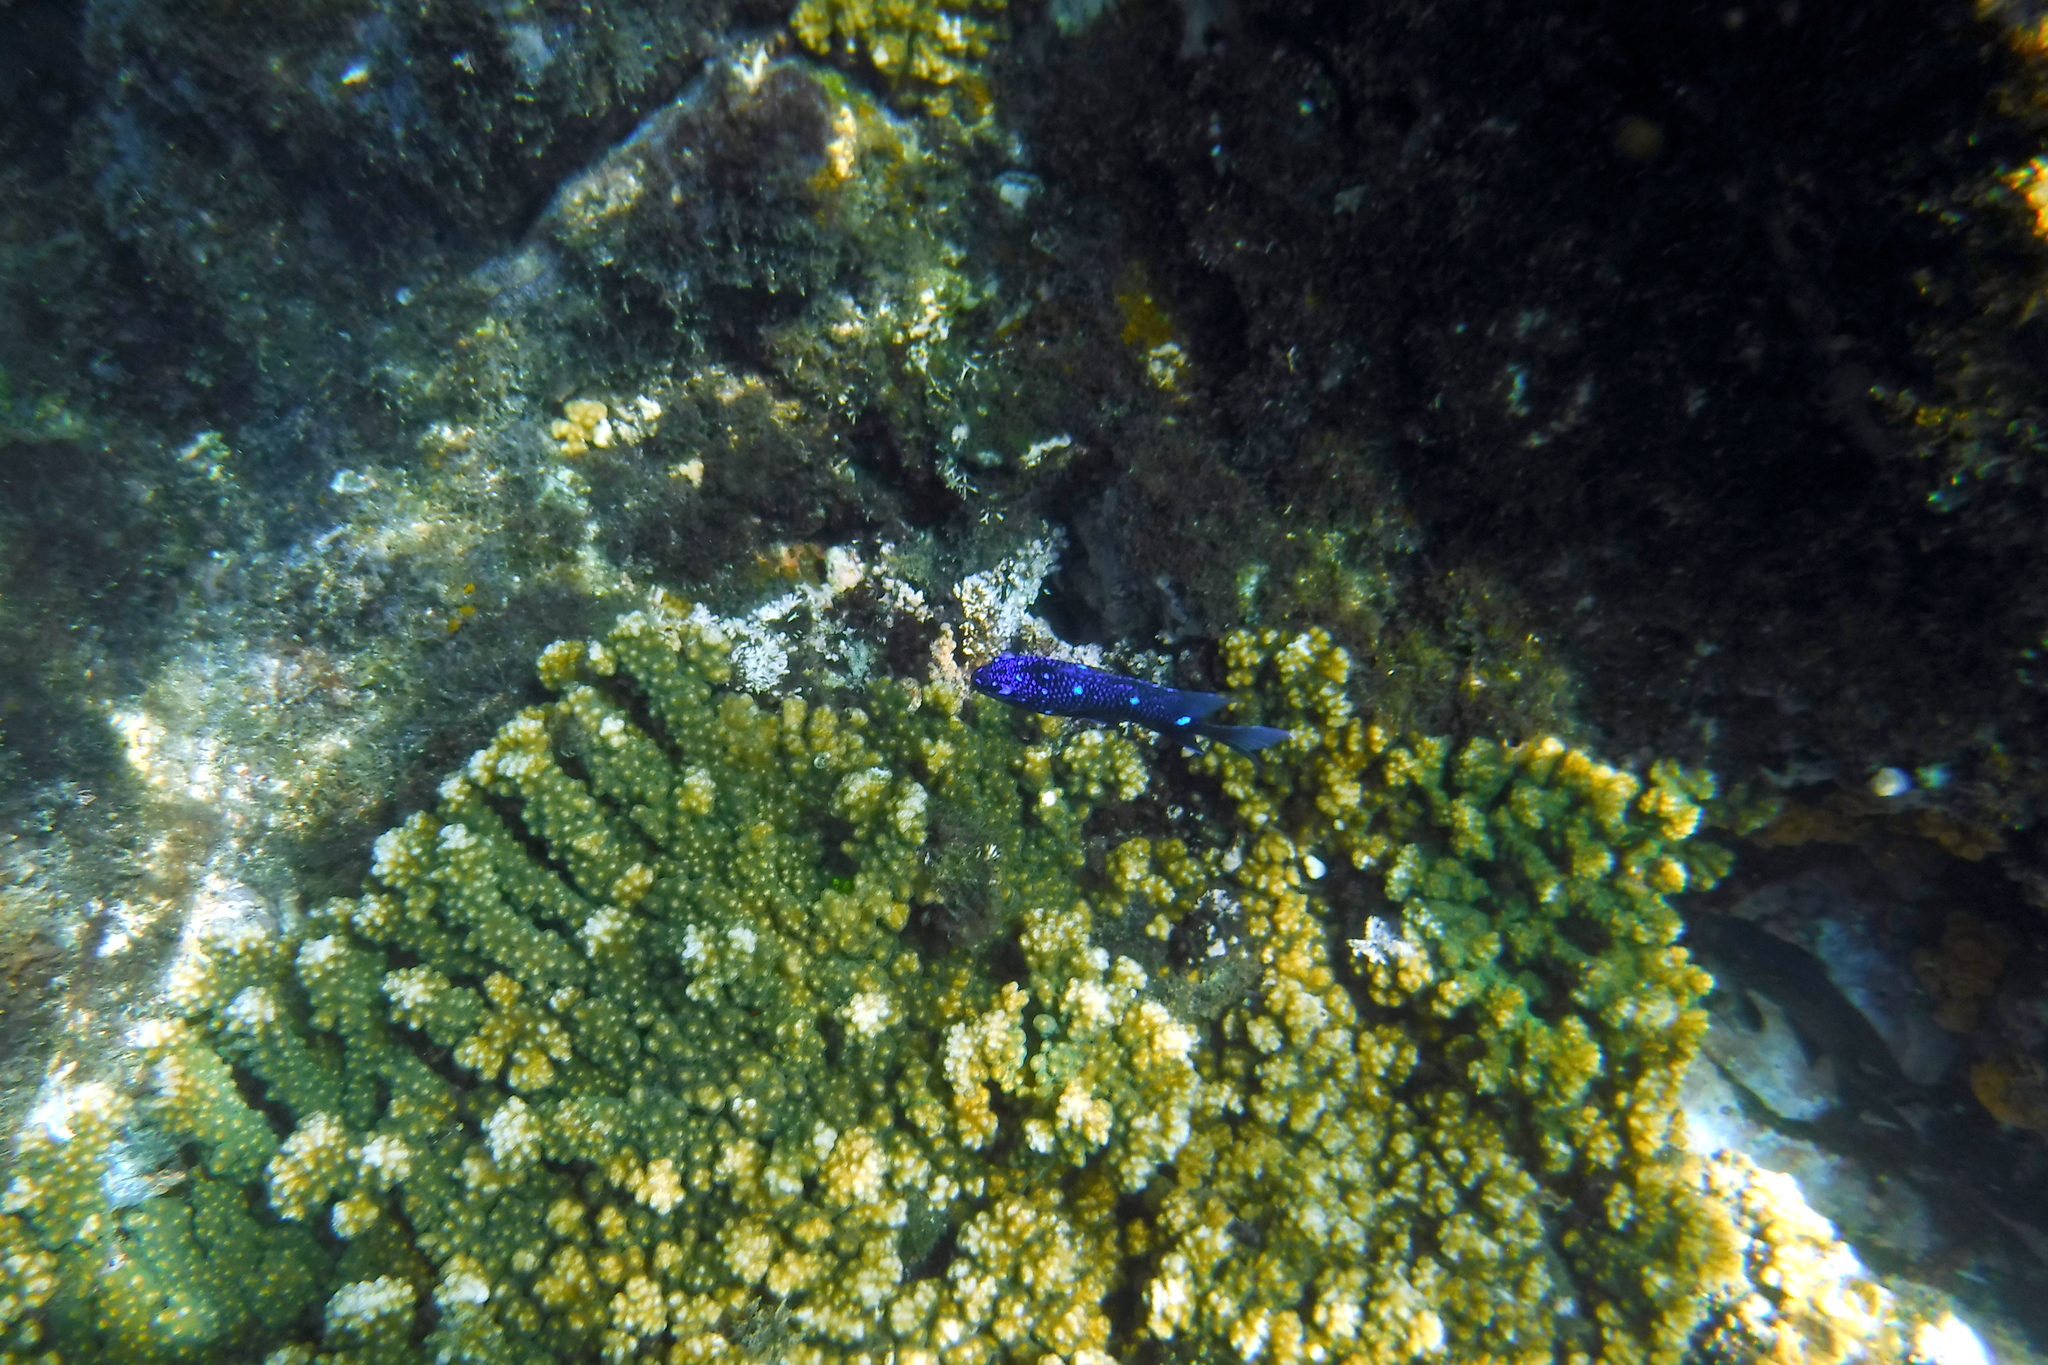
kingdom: Animalia
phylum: Chordata
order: Perciformes
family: Pomacentridae
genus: Microspathodon
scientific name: Microspathodon dorsalis
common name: Giant damselfish
